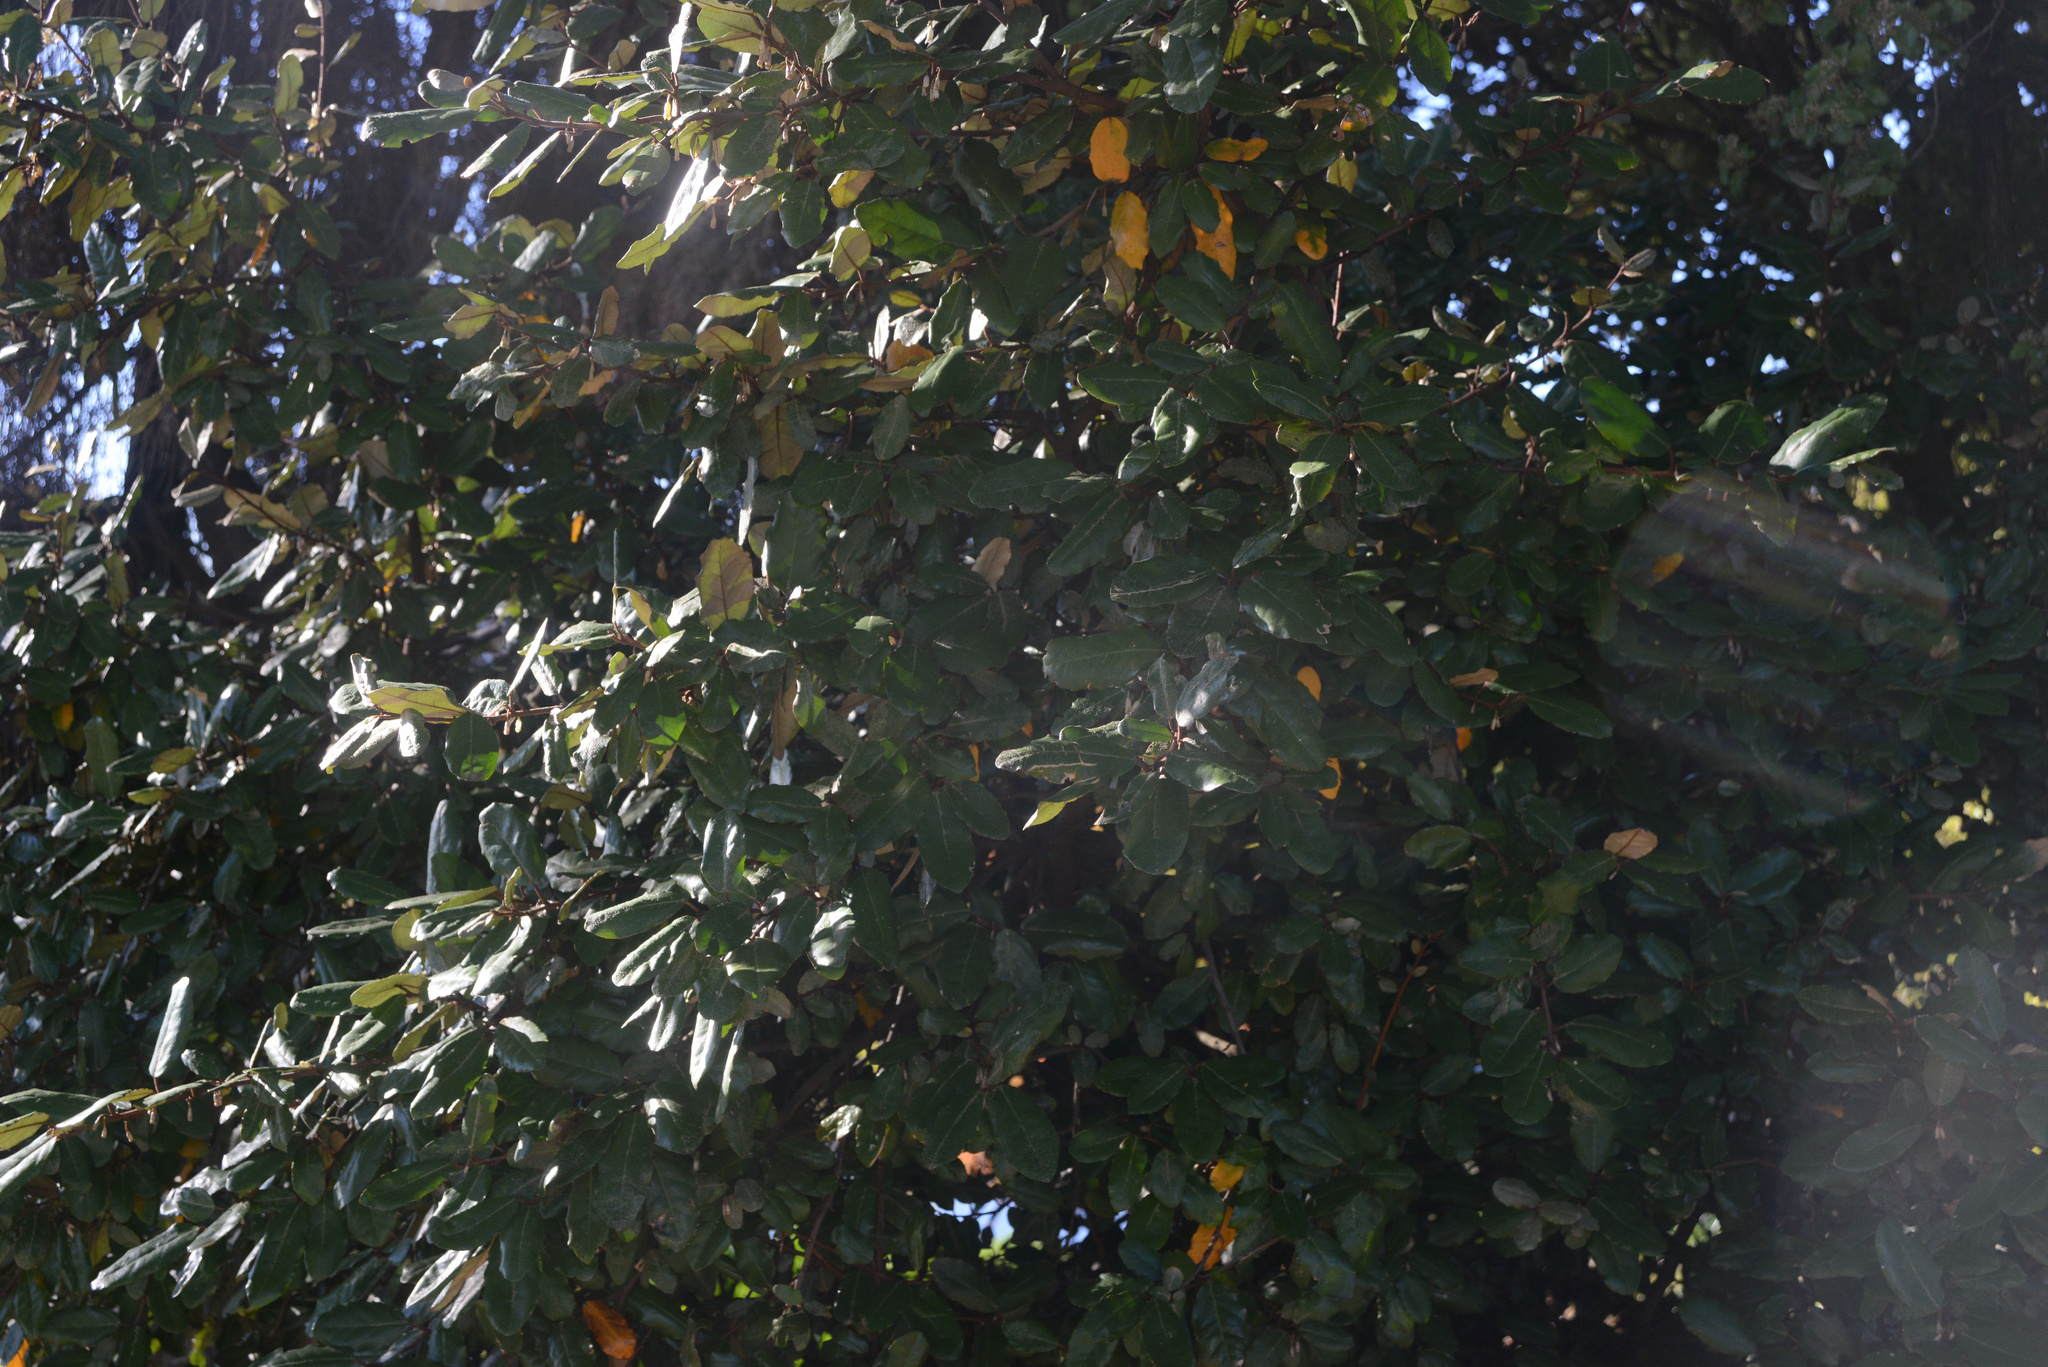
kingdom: Plantae
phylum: Tracheophyta
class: Magnoliopsida
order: Rosales
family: Elaeagnaceae
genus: Elaeagnus
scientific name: Elaeagnus reflexa
